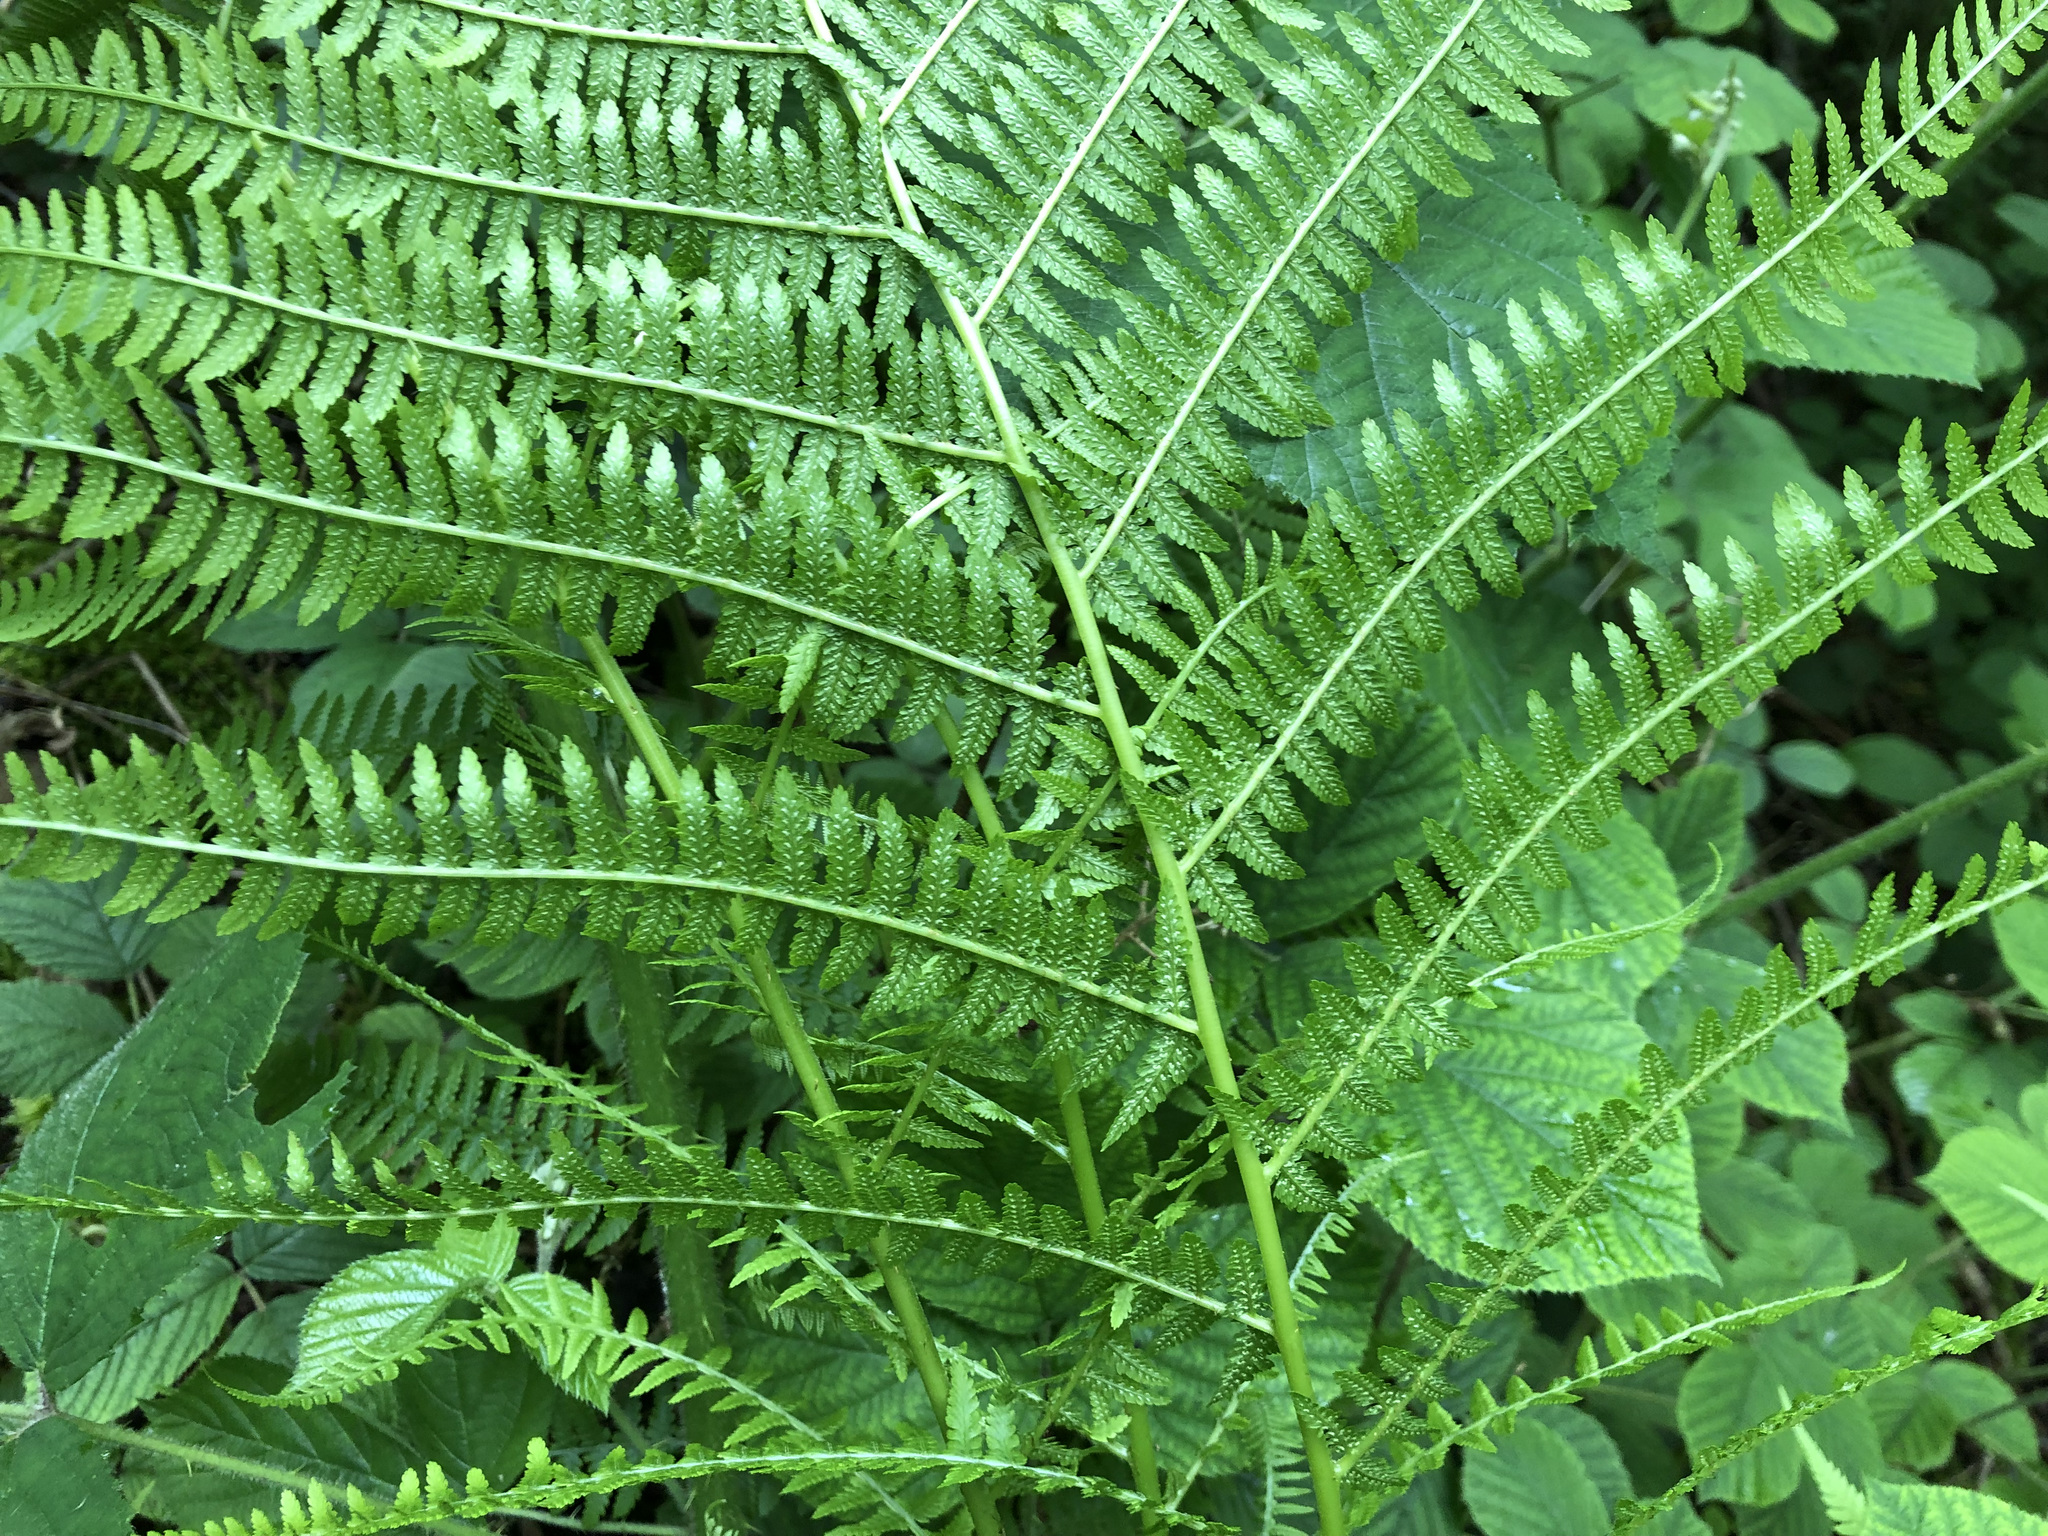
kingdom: Plantae
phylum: Tracheophyta
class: Polypodiopsida
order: Polypodiales
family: Athyriaceae
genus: Athyrium
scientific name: Athyrium filix-femina
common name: Lady fern
